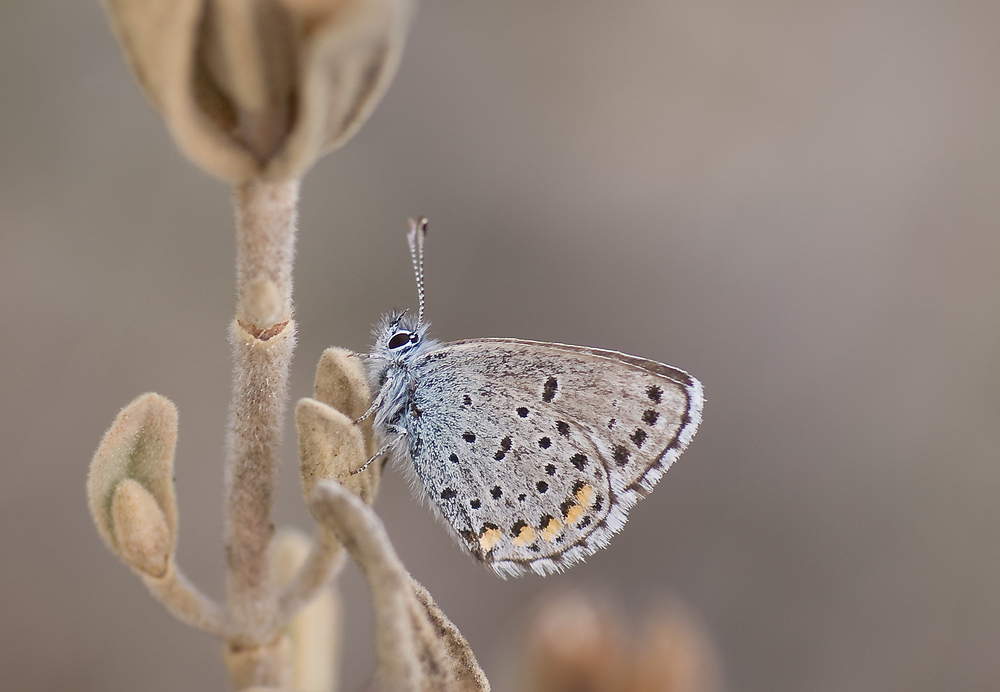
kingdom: Animalia
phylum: Arthropoda
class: Insecta
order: Lepidoptera
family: Lycaenidae
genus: Pseudophilotes
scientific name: Pseudophilotes baton
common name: Baton blue
